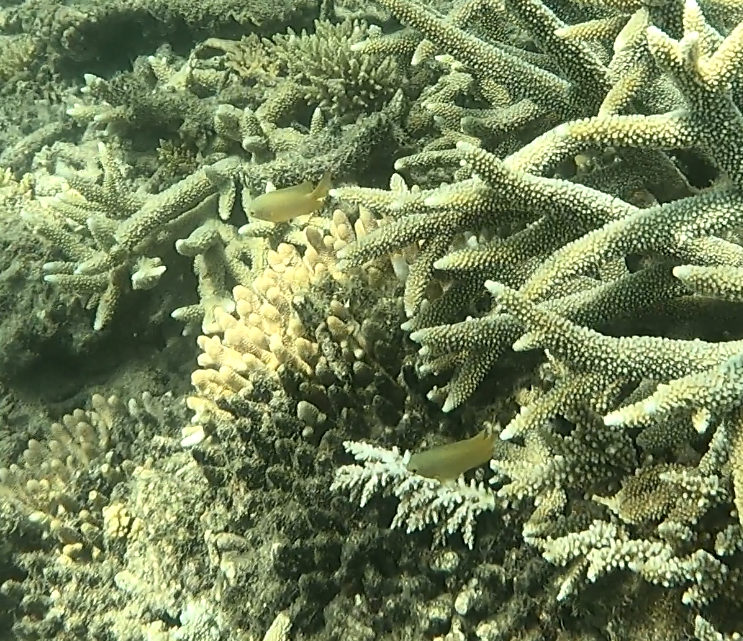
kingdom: Animalia
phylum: Chordata
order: Perciformes
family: Pomacentridae
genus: Pomacentrus
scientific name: Pomacentrus amboinensis
